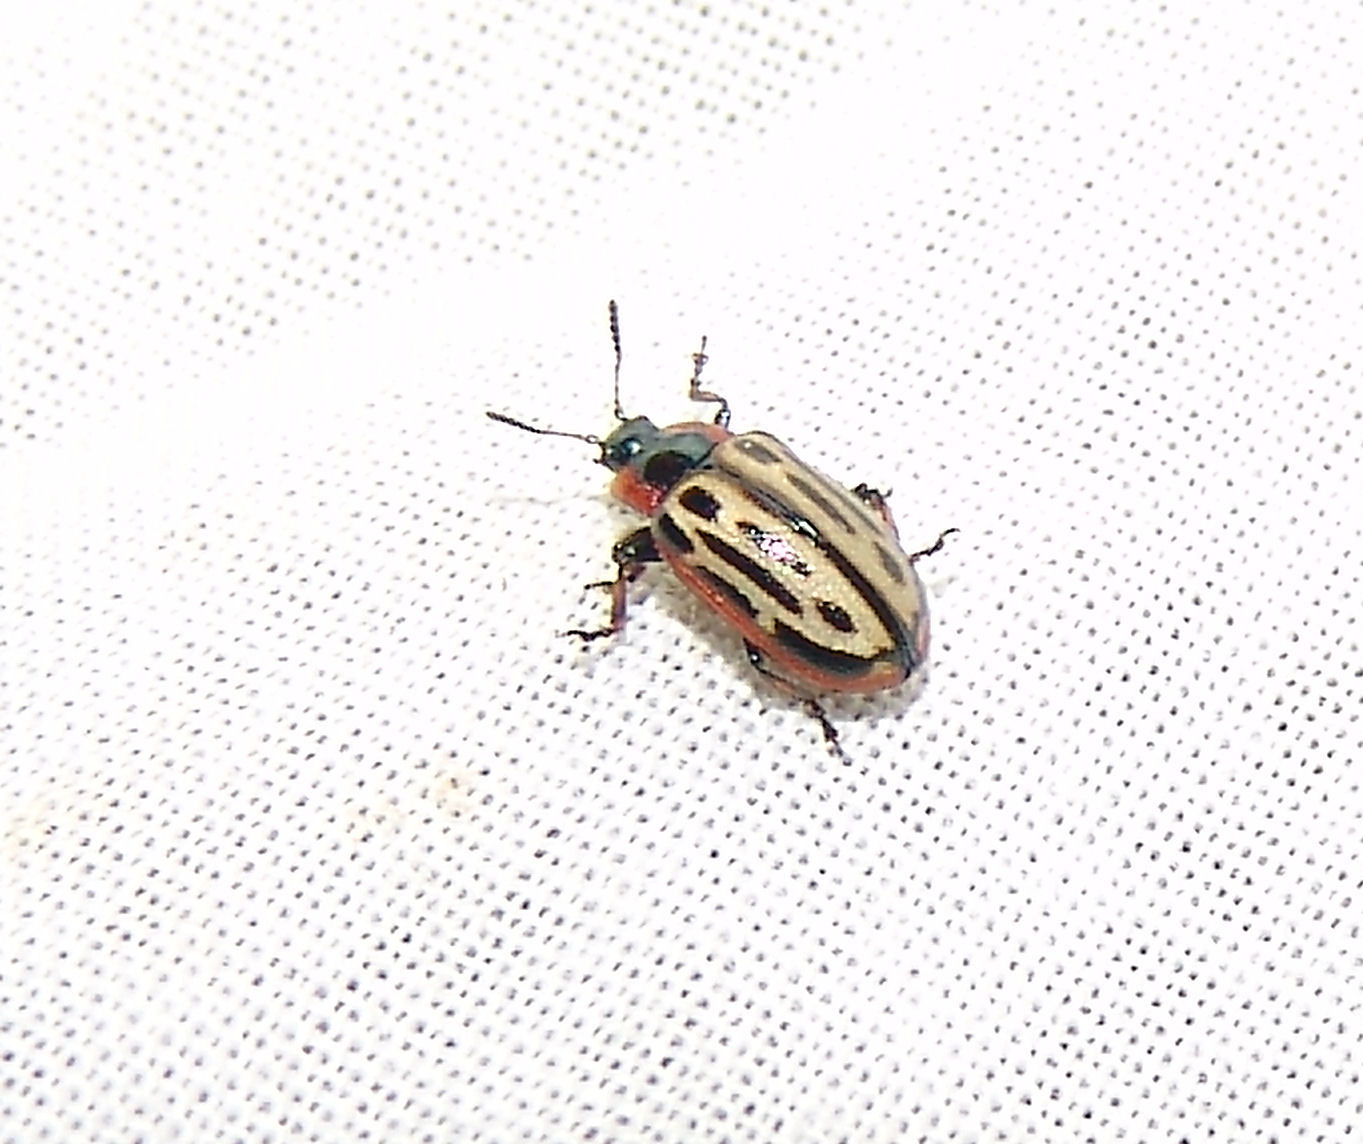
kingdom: Animalia
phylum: Arthropoda
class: Insecta
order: Coleoptera
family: Chrysomelidae
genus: Aethiopocassis
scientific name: Aethiopocassis scripta
